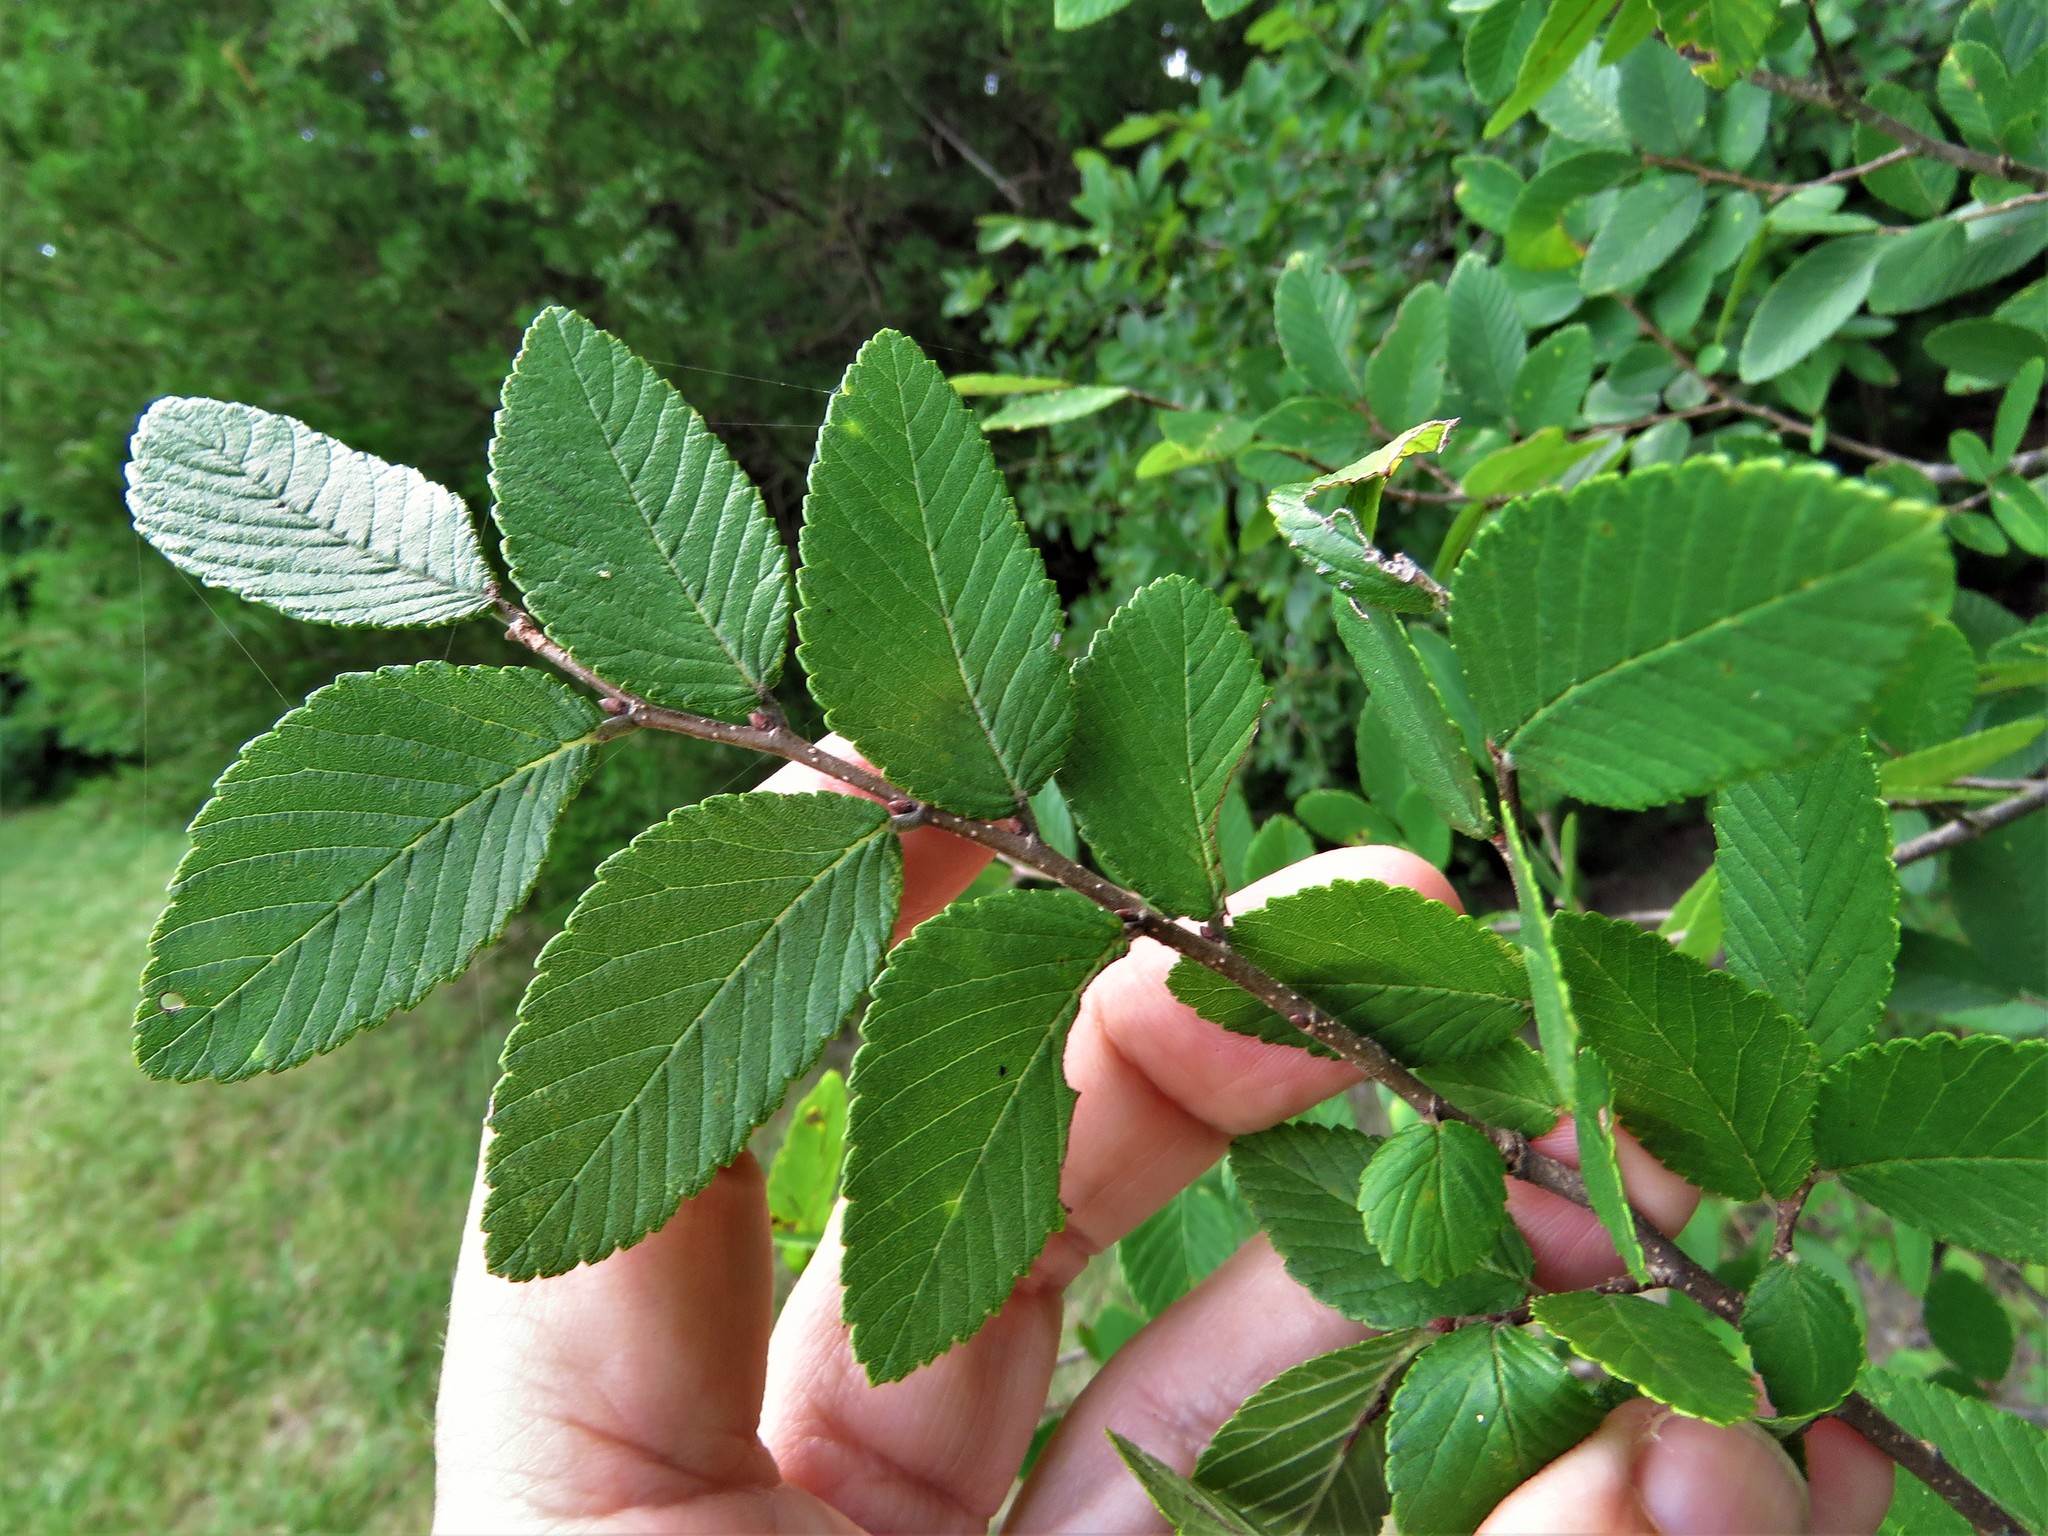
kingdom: Plantae
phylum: Tracheophyta
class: Magnoliopsida
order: Rosales
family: Ulmaceae
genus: Ulmus
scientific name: Ulmus crassifolia
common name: Basket elm
